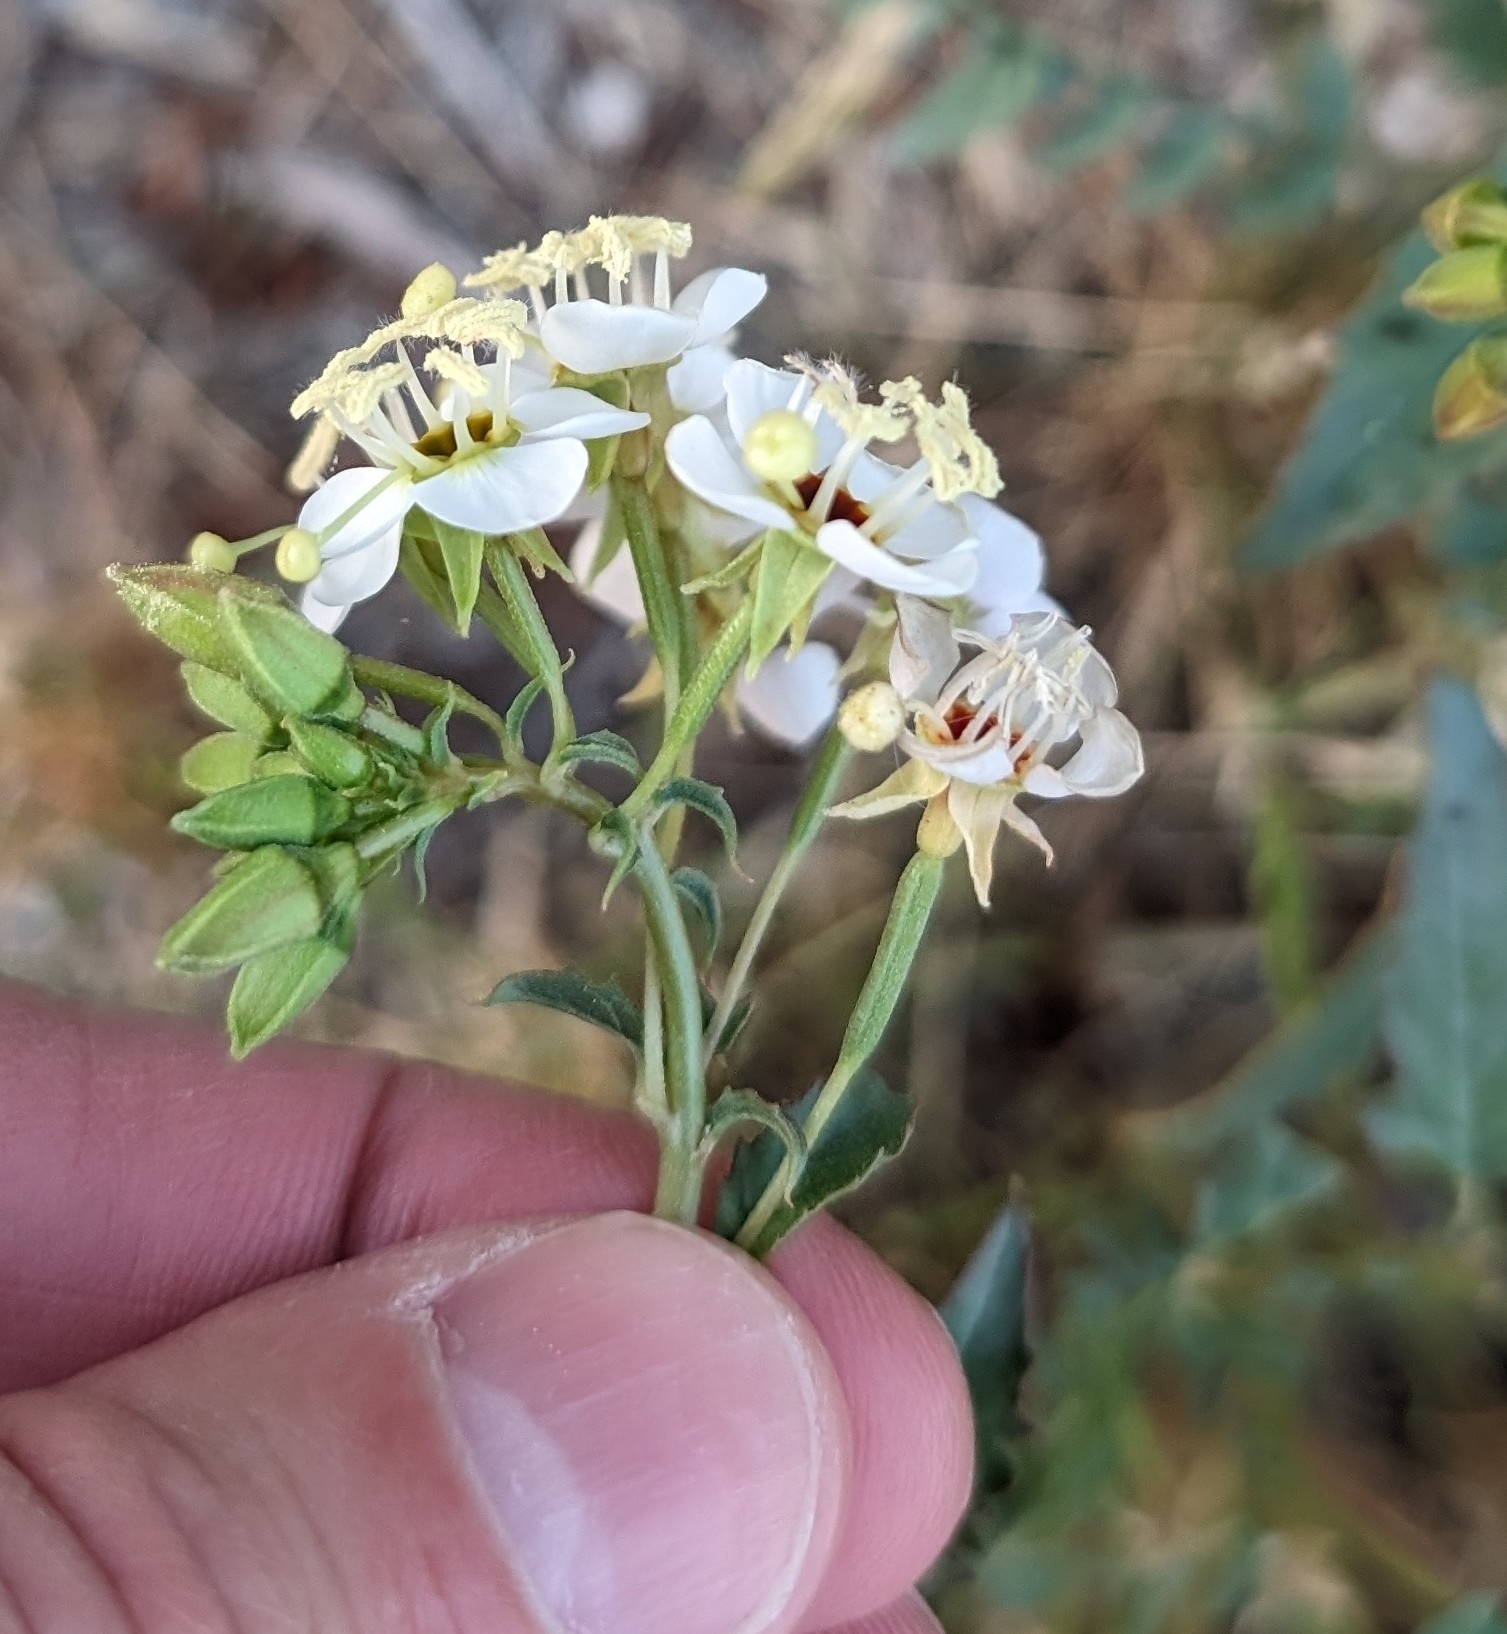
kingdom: Plantae
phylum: Tracheophyta
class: Magnoliopsida
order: Myrtales
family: Onagraceae
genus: Chylismia
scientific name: Chylismia claviformis
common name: Browneyes
